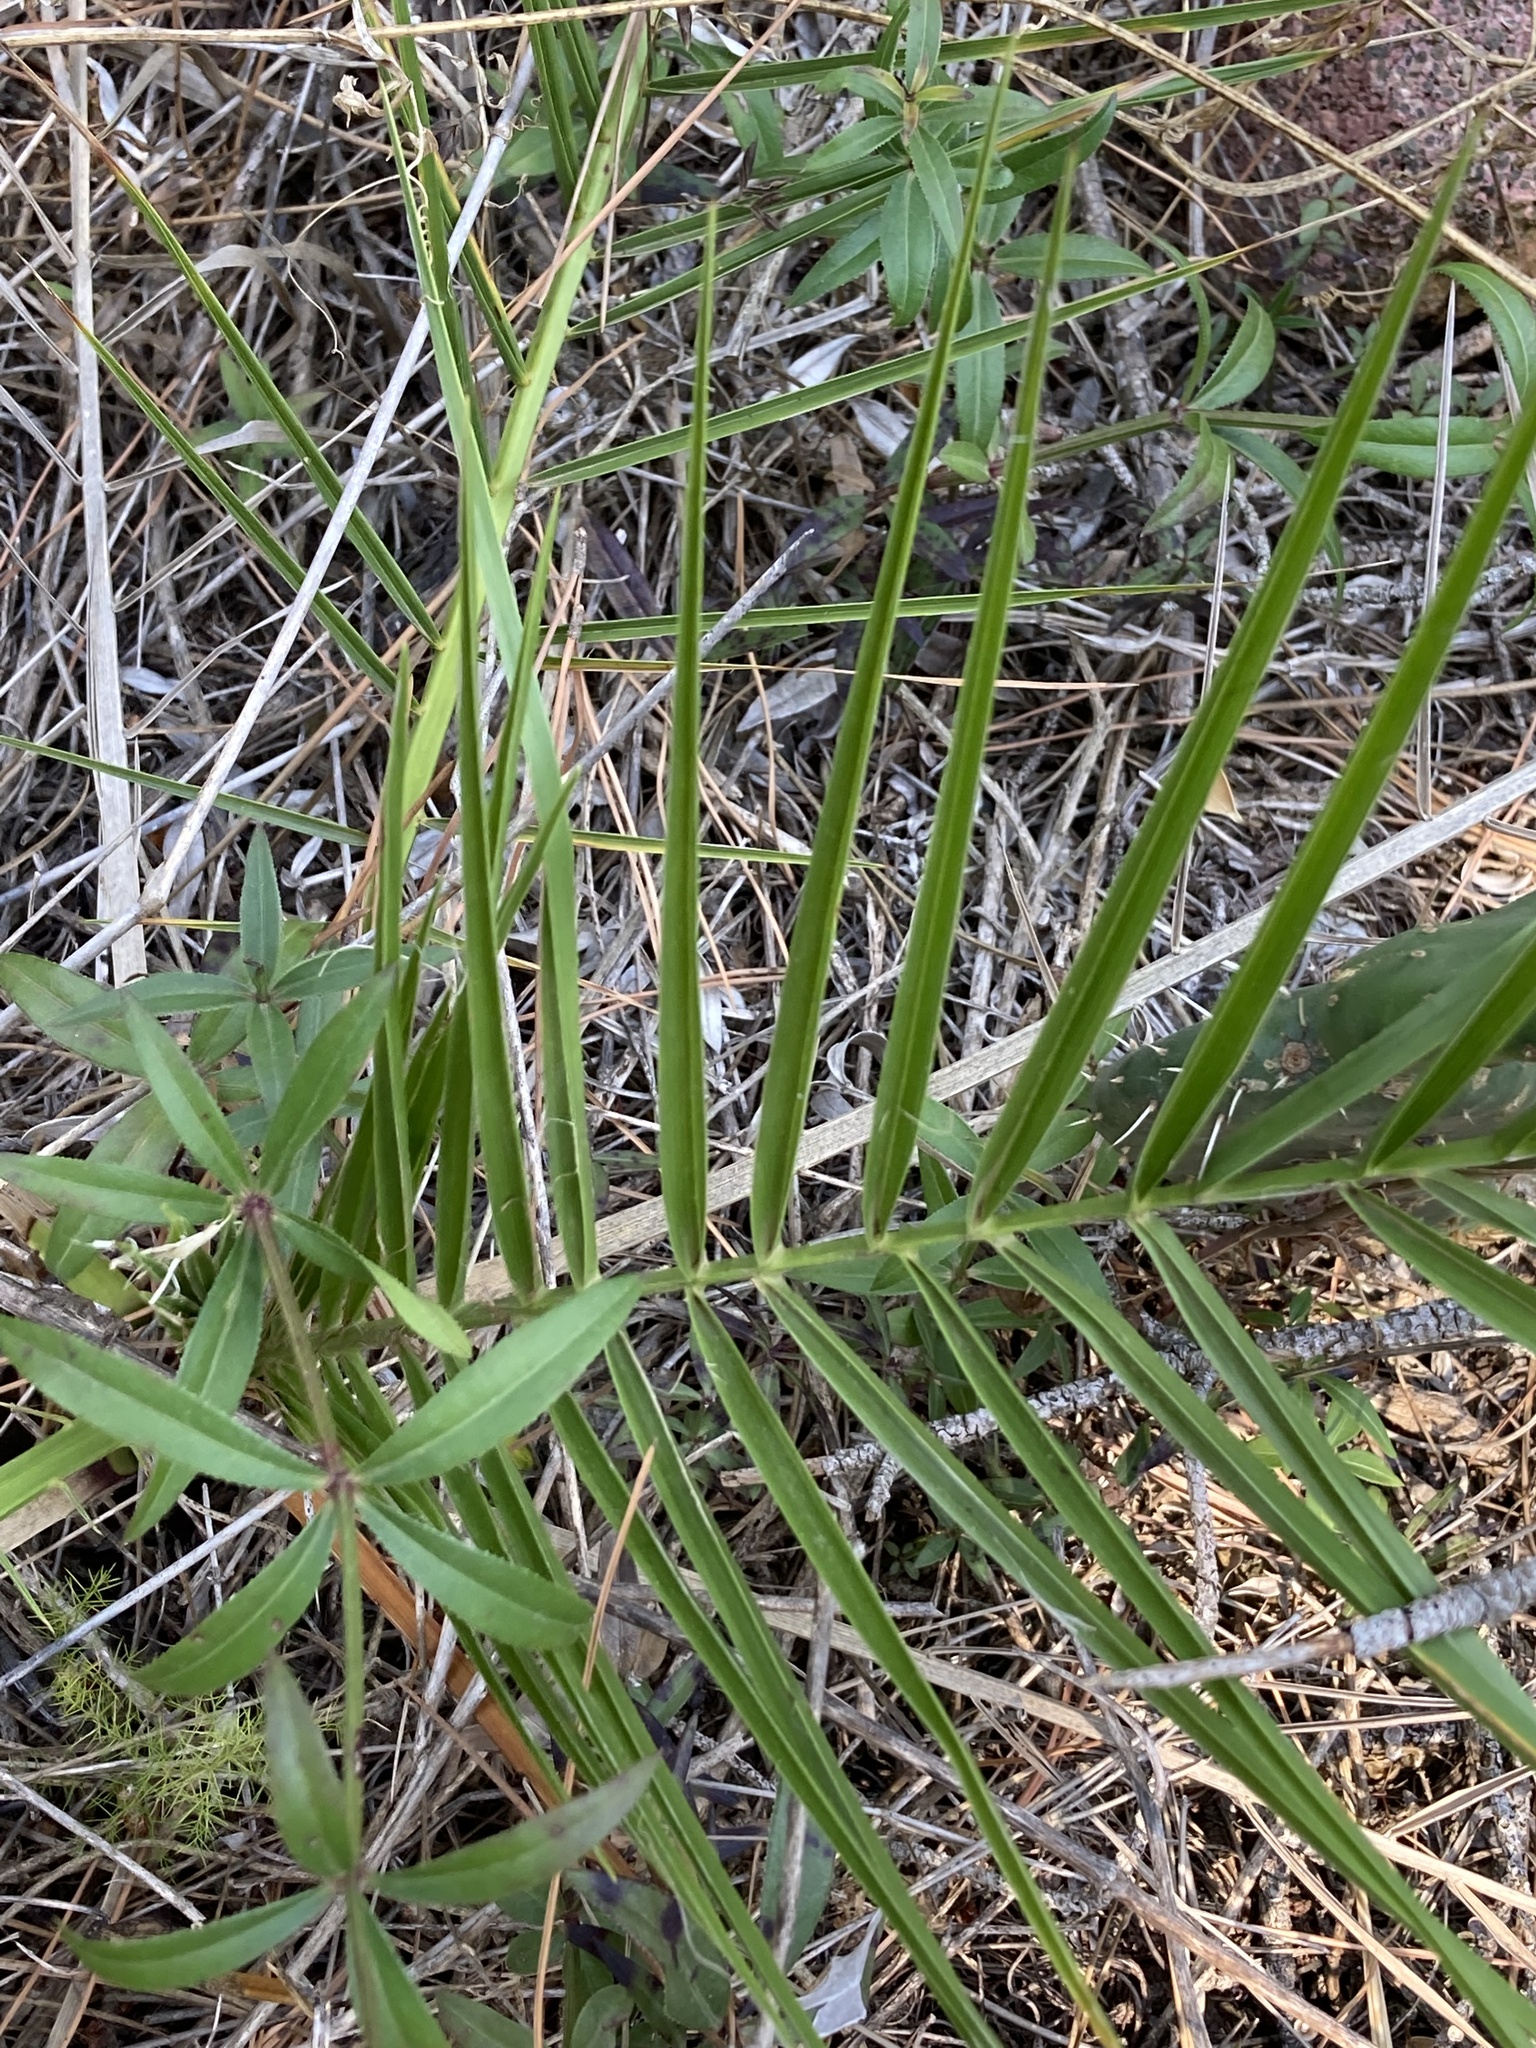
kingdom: Plantae
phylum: Tracheophyta
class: Liliopsida
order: Arecales
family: Arecaceae
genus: Phoenix
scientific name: Phoenix canariensis
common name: Canary island date palm
